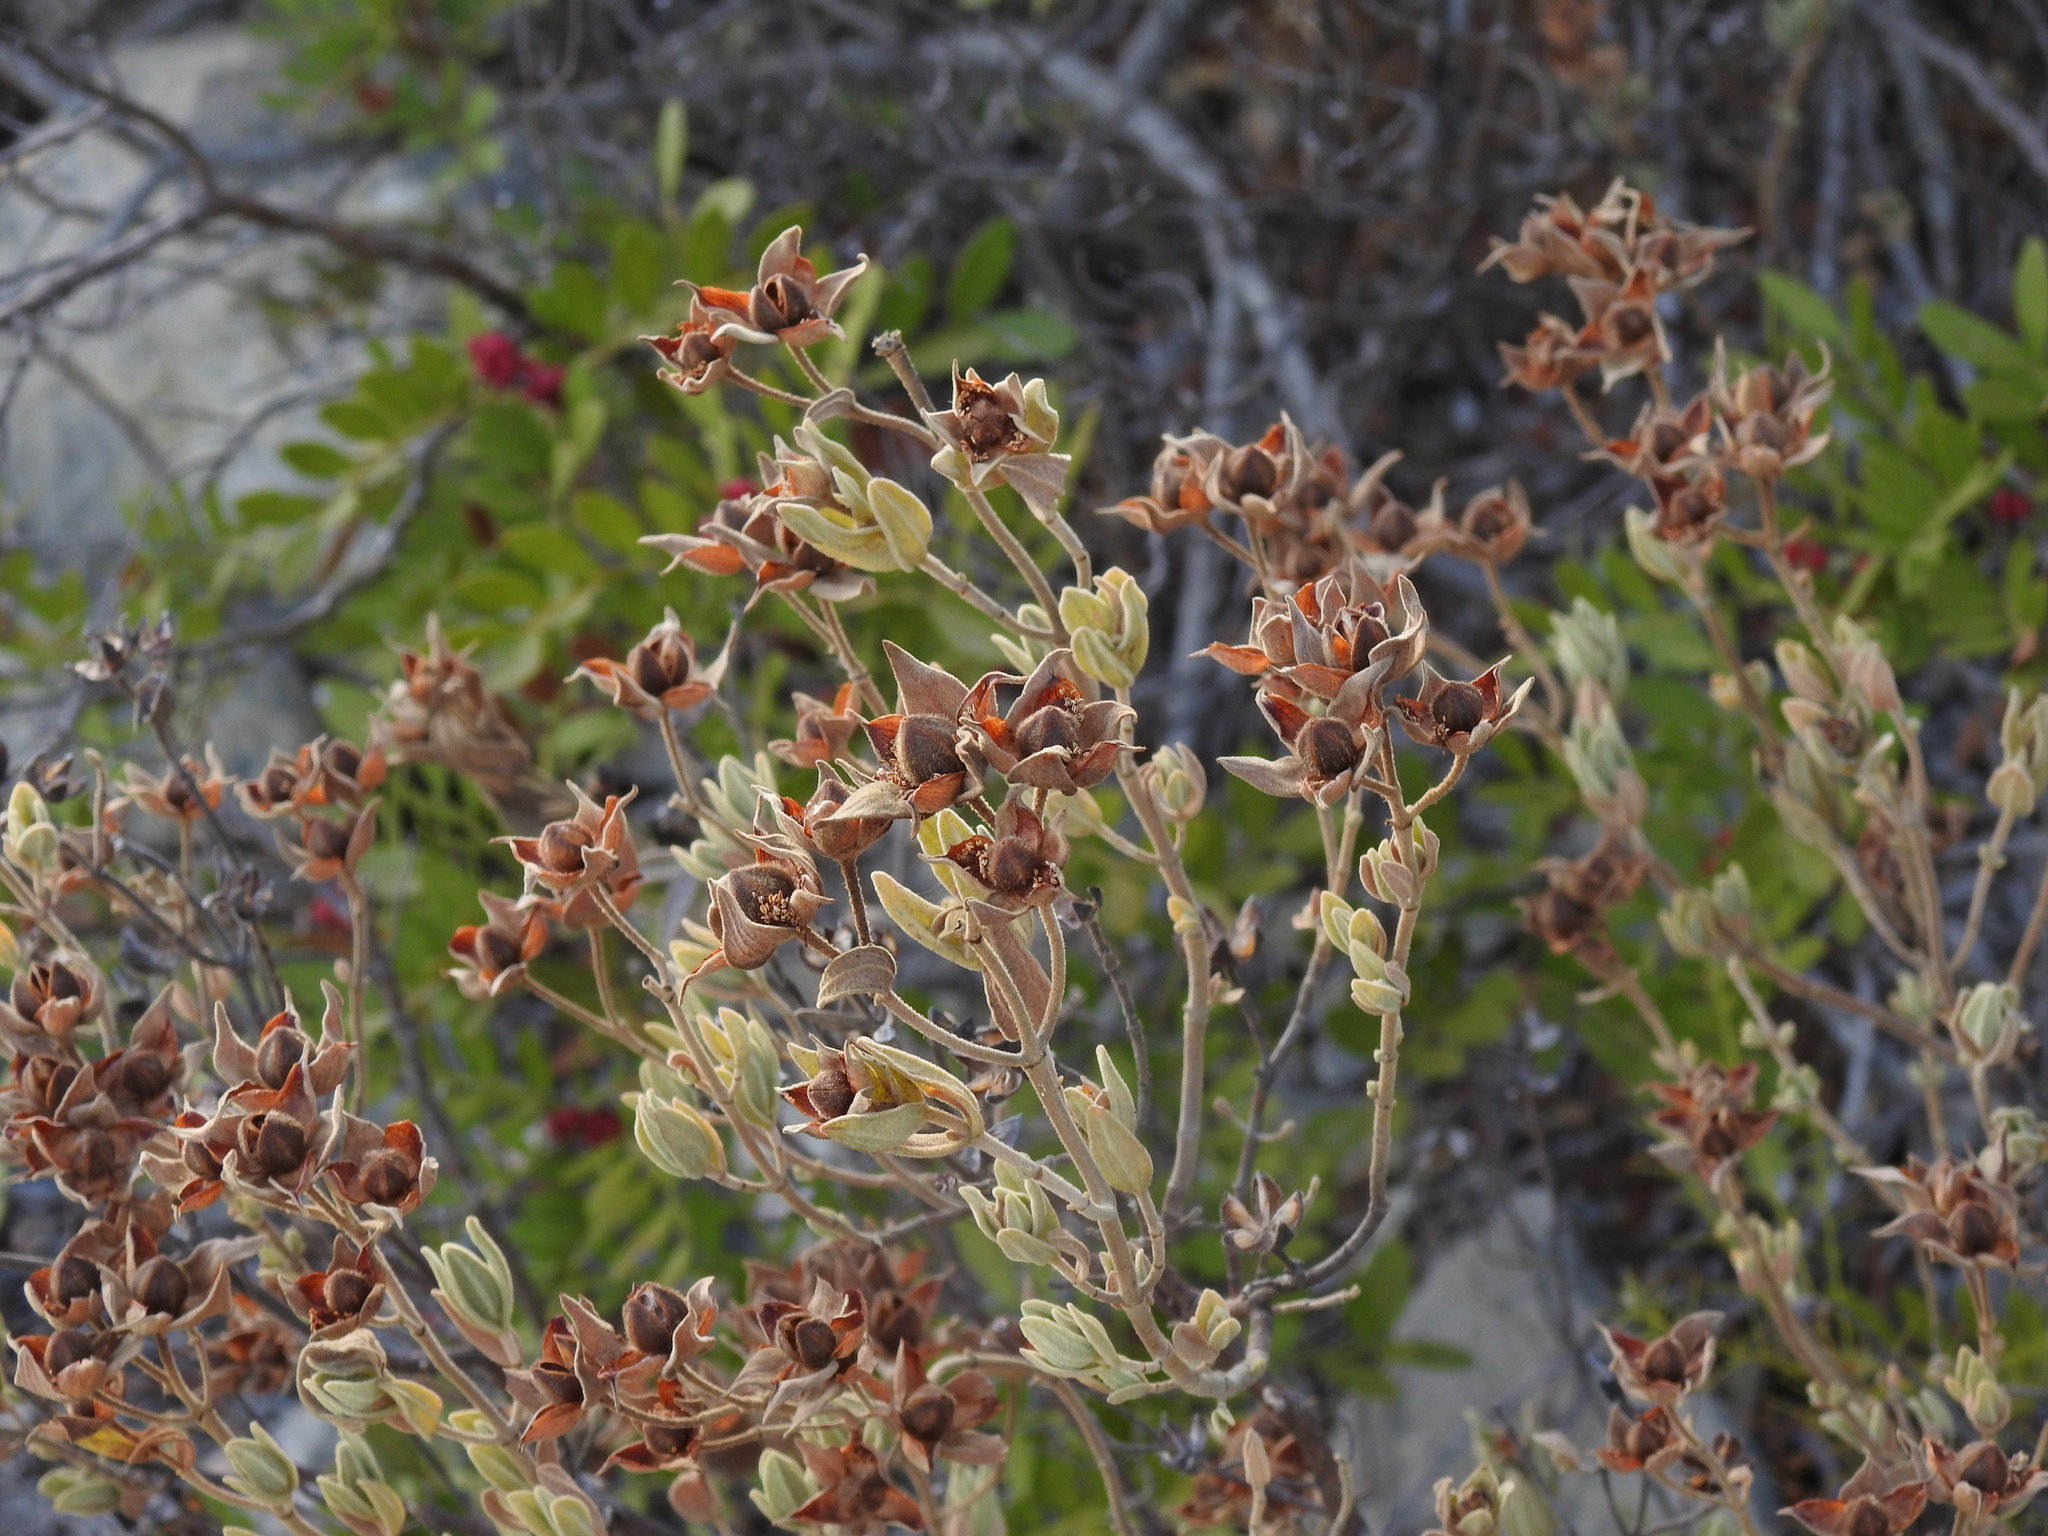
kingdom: Plantae
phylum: Tracheophyta
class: Magnoliopsida
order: Malvales
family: Cistaceae
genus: Cistus
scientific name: Cistus albidus
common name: White-leaf rock-rose
